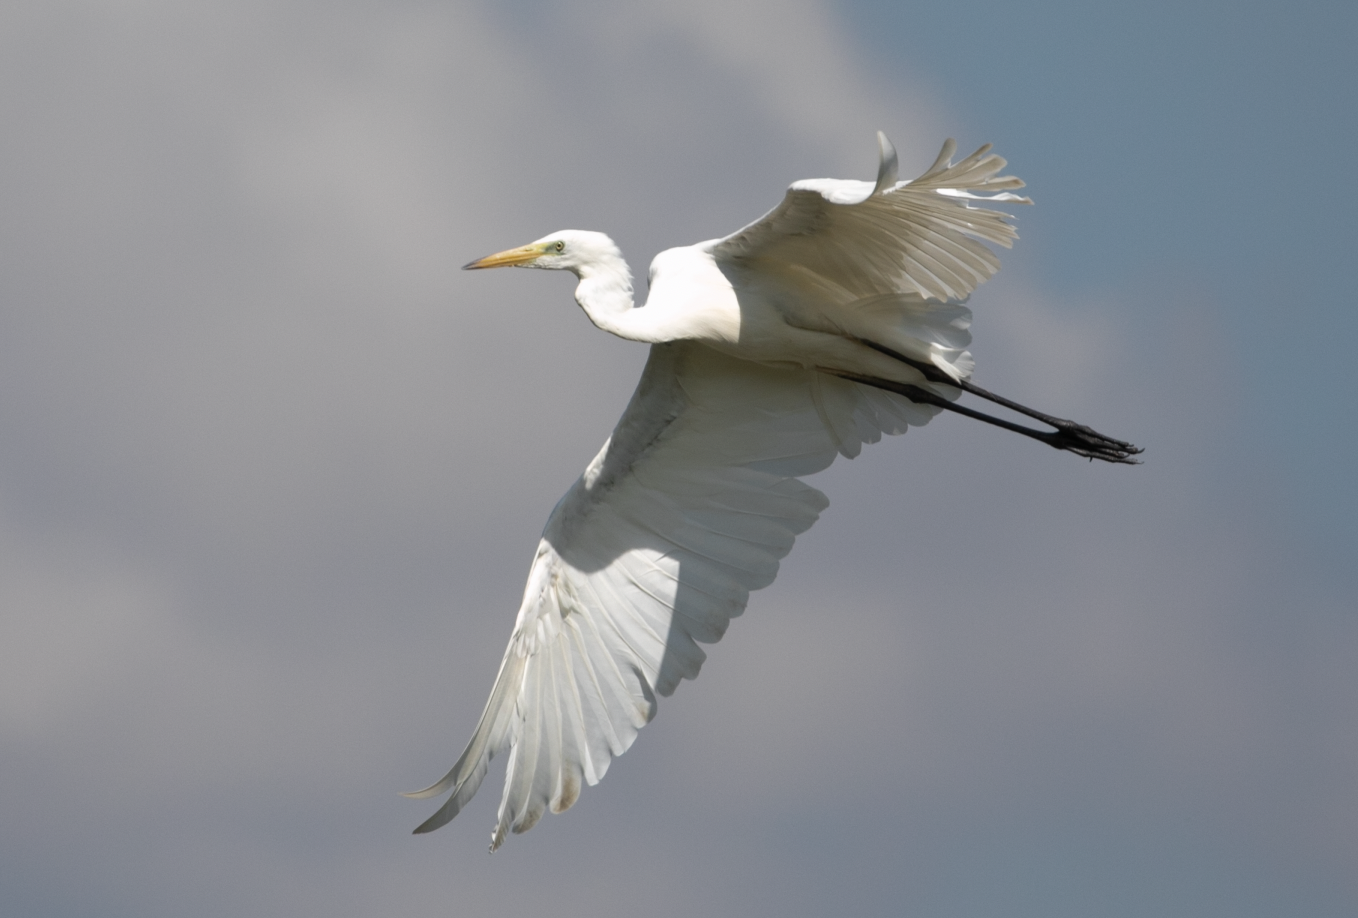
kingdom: Animalia
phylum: Chordata
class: Aves
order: Pelecaniformes
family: Ardeidae
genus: Ardea
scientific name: Ardea alba
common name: Great egret
